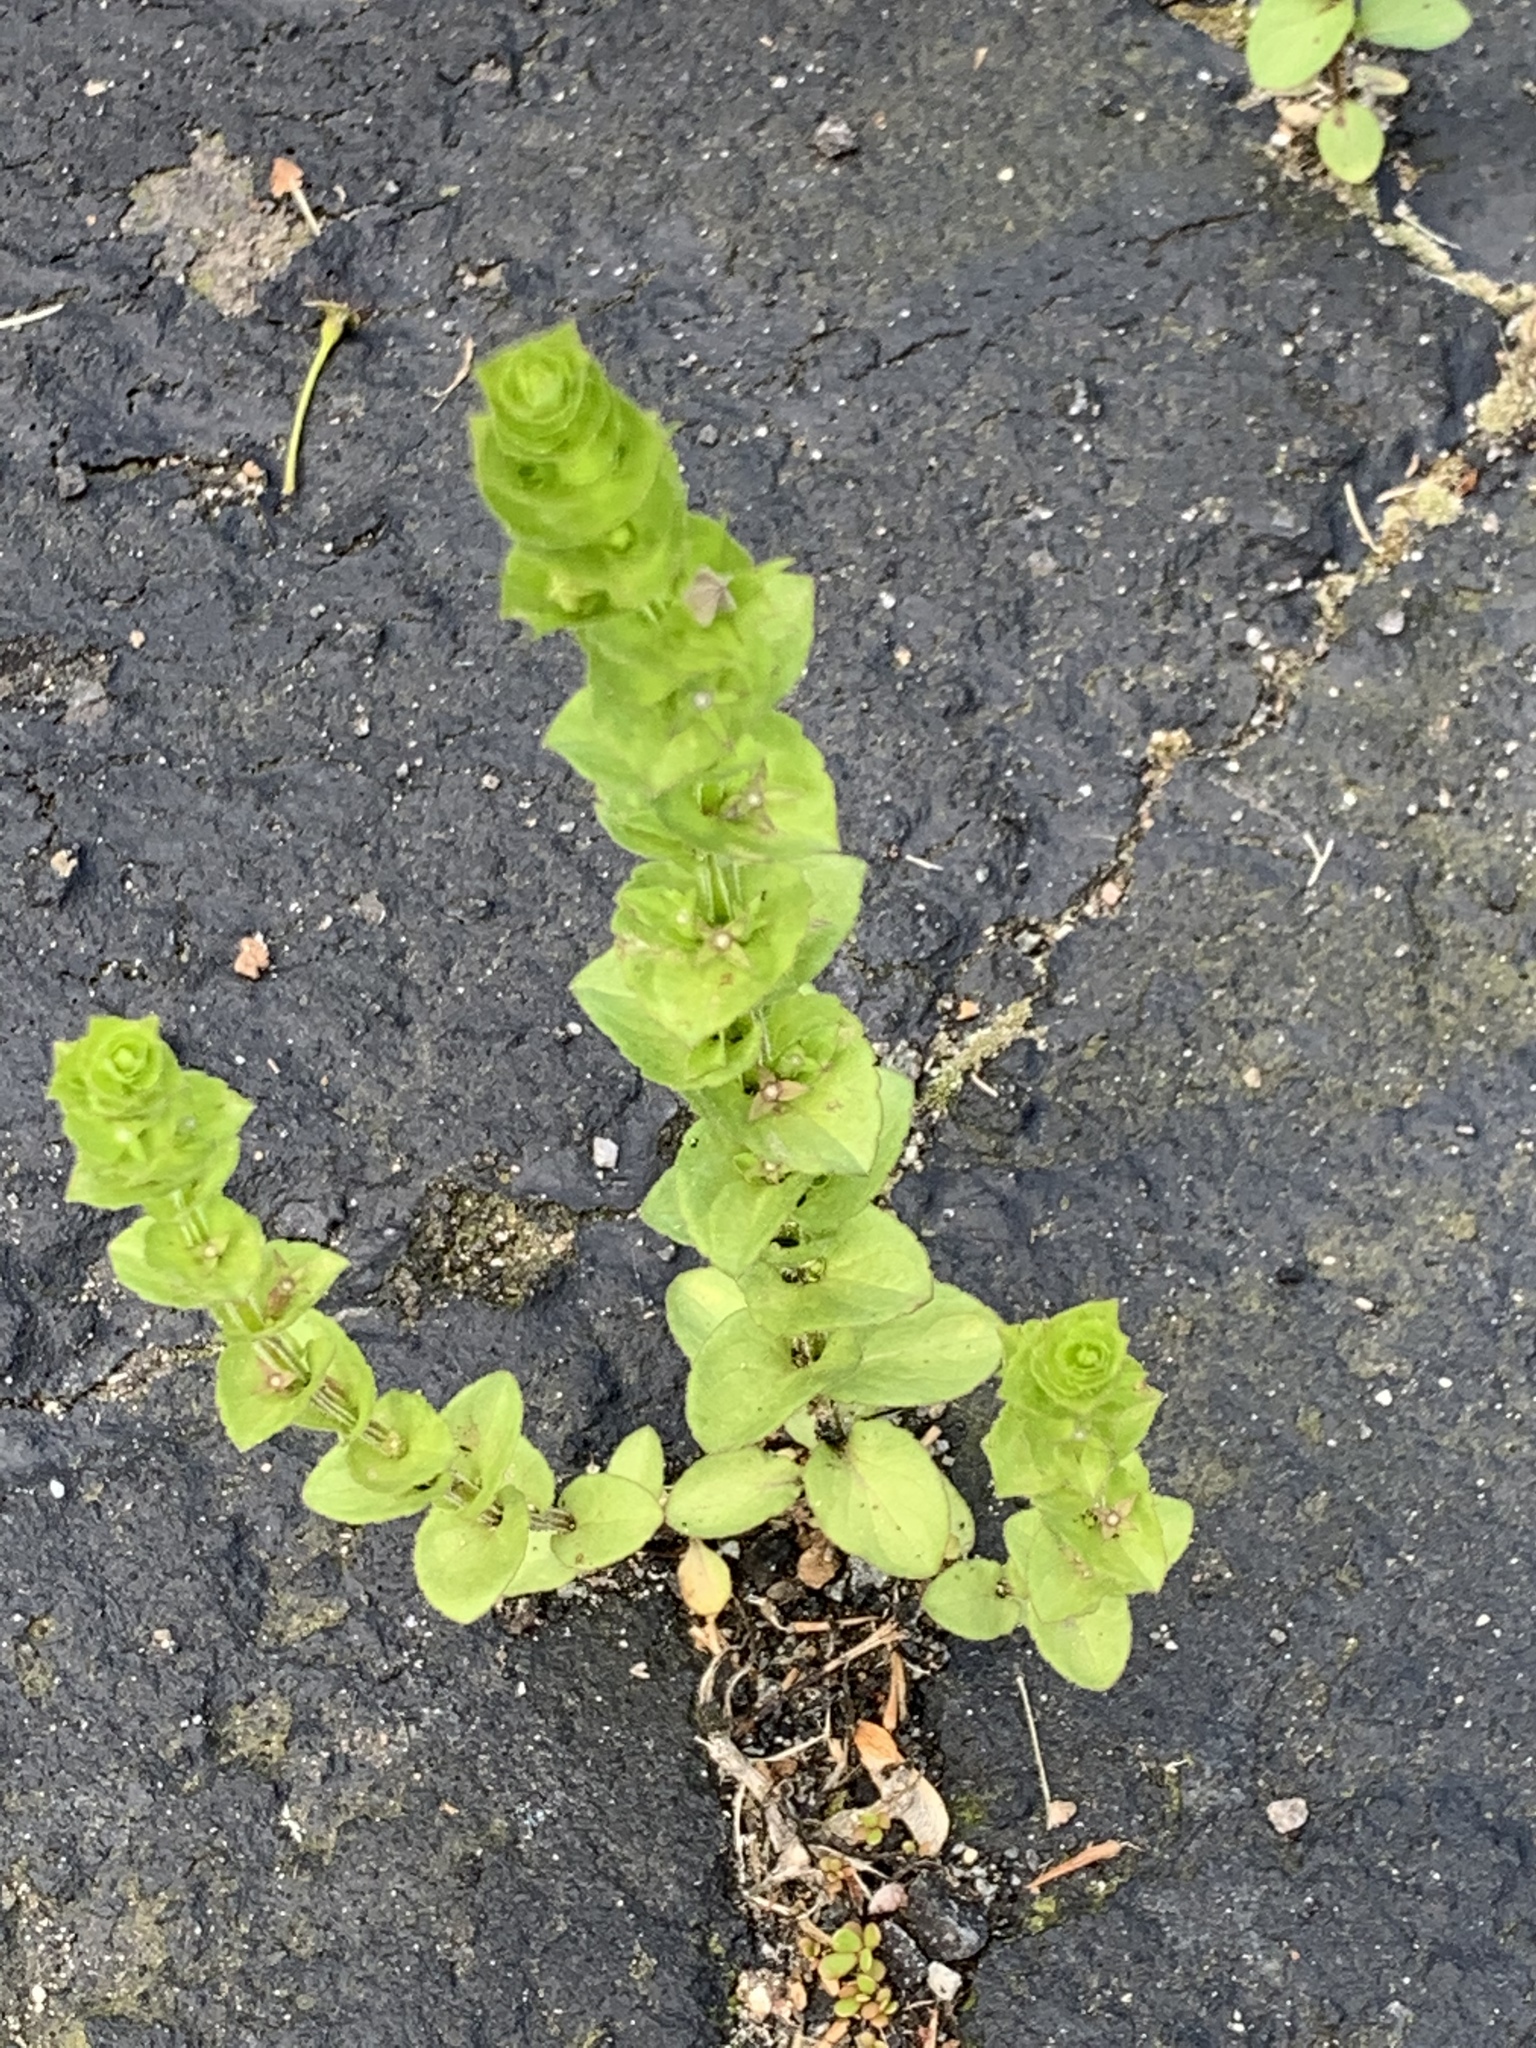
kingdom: Plantae
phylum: Tracheophyta
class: Magnoliopsida
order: Asterales
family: Campanulaceae
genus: Triodanis
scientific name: Triodanis perfoliata
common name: Clasping venus' looking-glass
